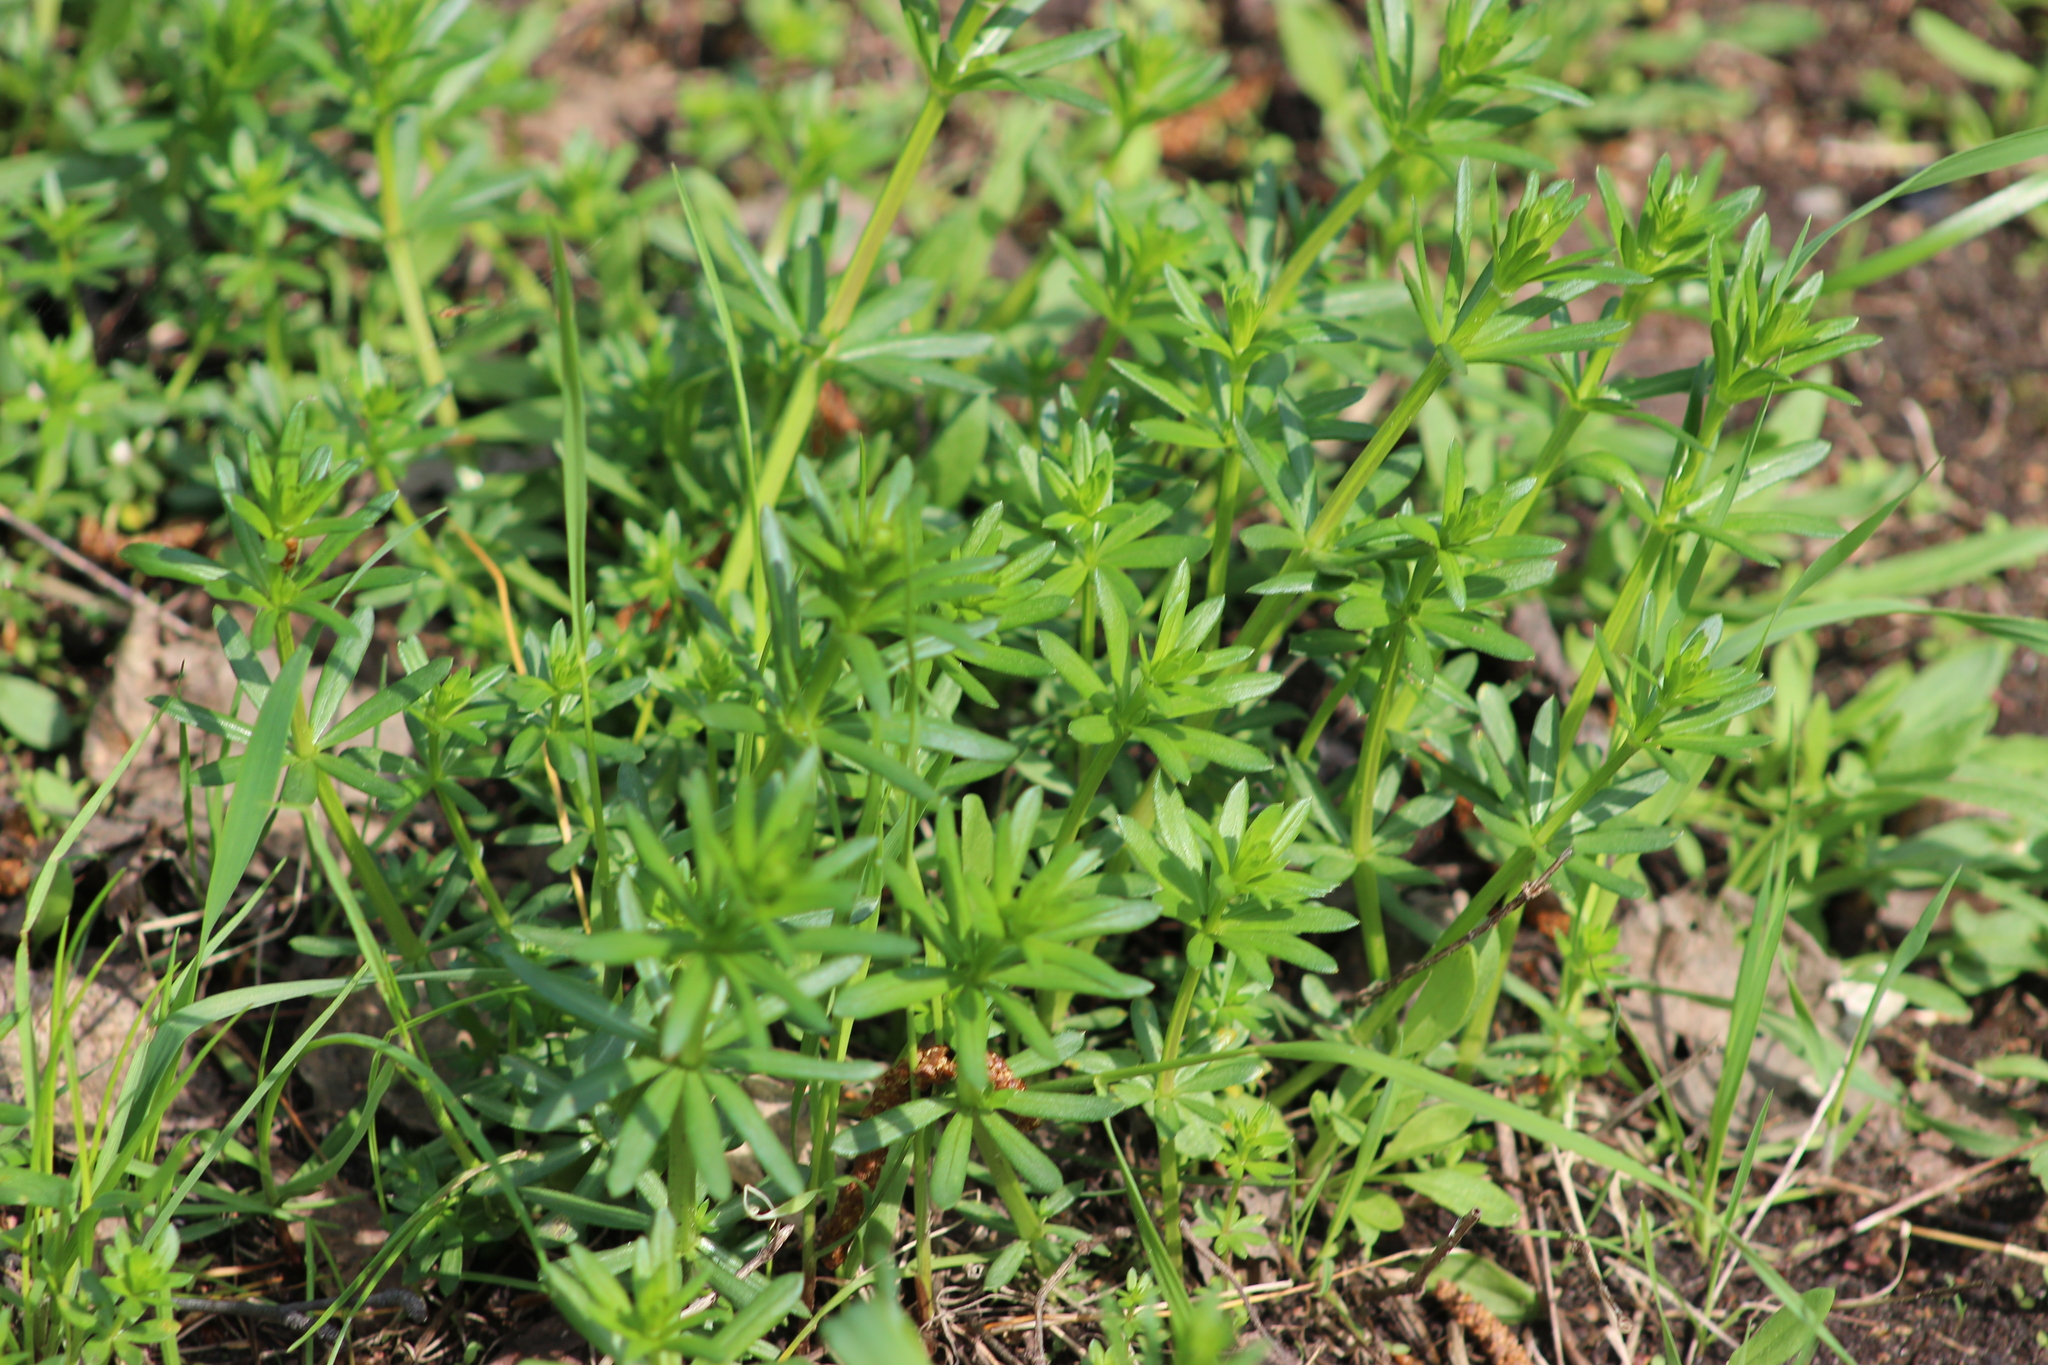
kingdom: Plantae
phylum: Tracheophyta
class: Magnoliopsida
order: Gentianales
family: Rubiaceae
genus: Galium
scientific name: Galium mollugo
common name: Hedge bedstraw
